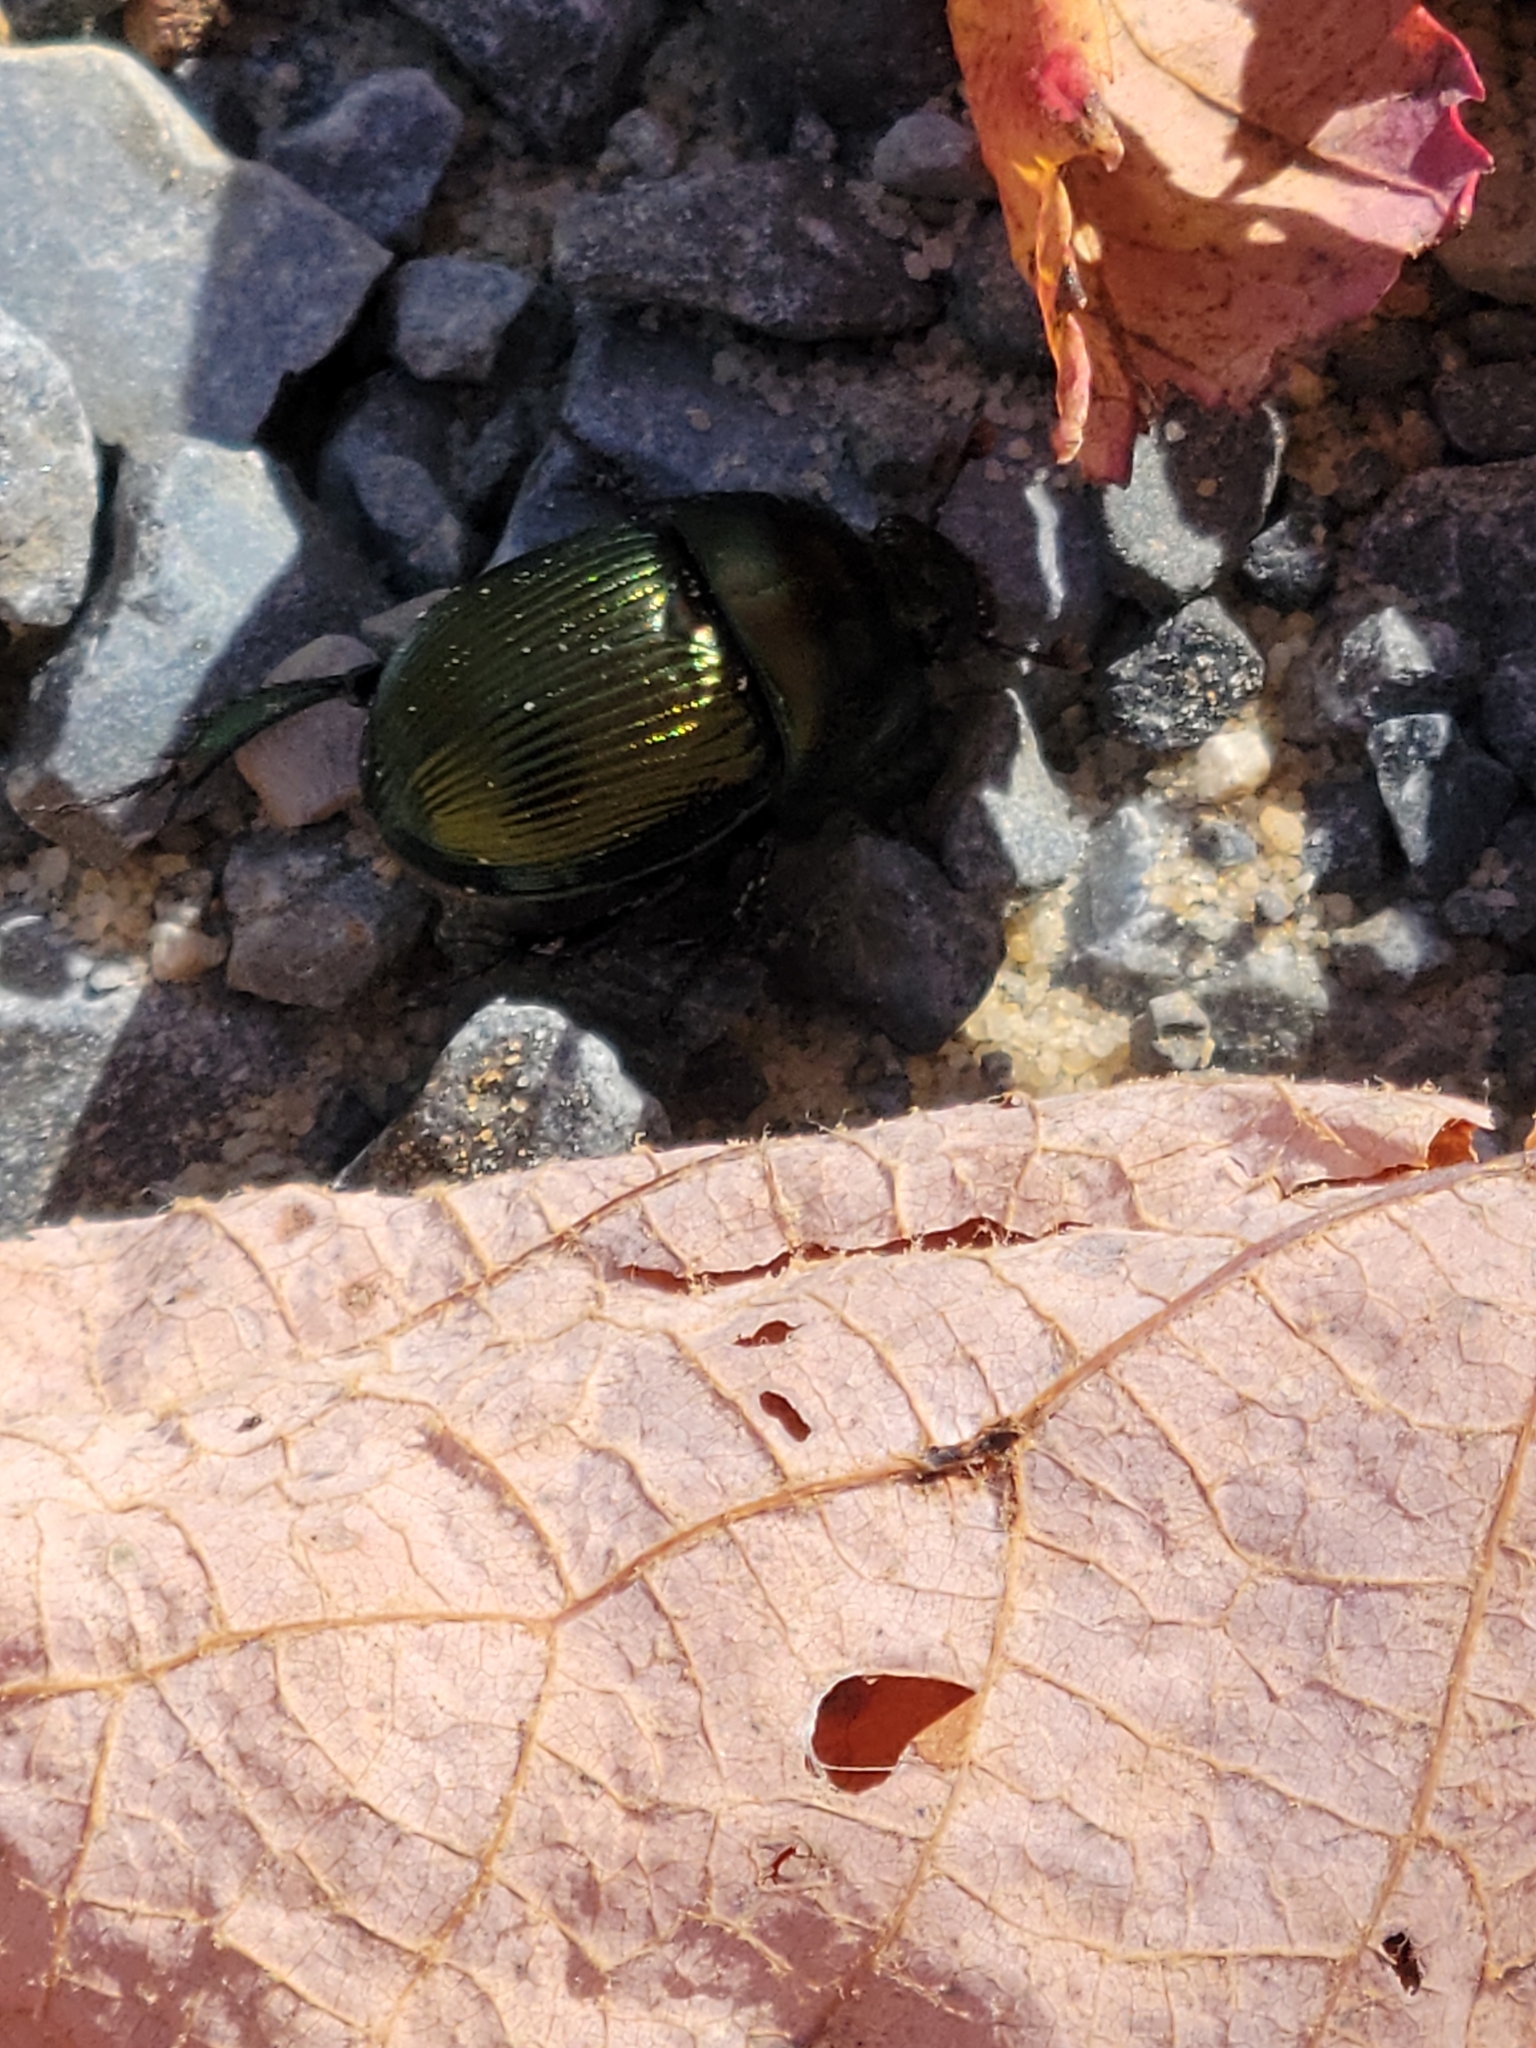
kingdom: Animalia
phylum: Arthropoda
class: Insecta
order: Coleoptera
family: Geotrupidae
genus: Geotrupes
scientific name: Geotrupes splendidus
